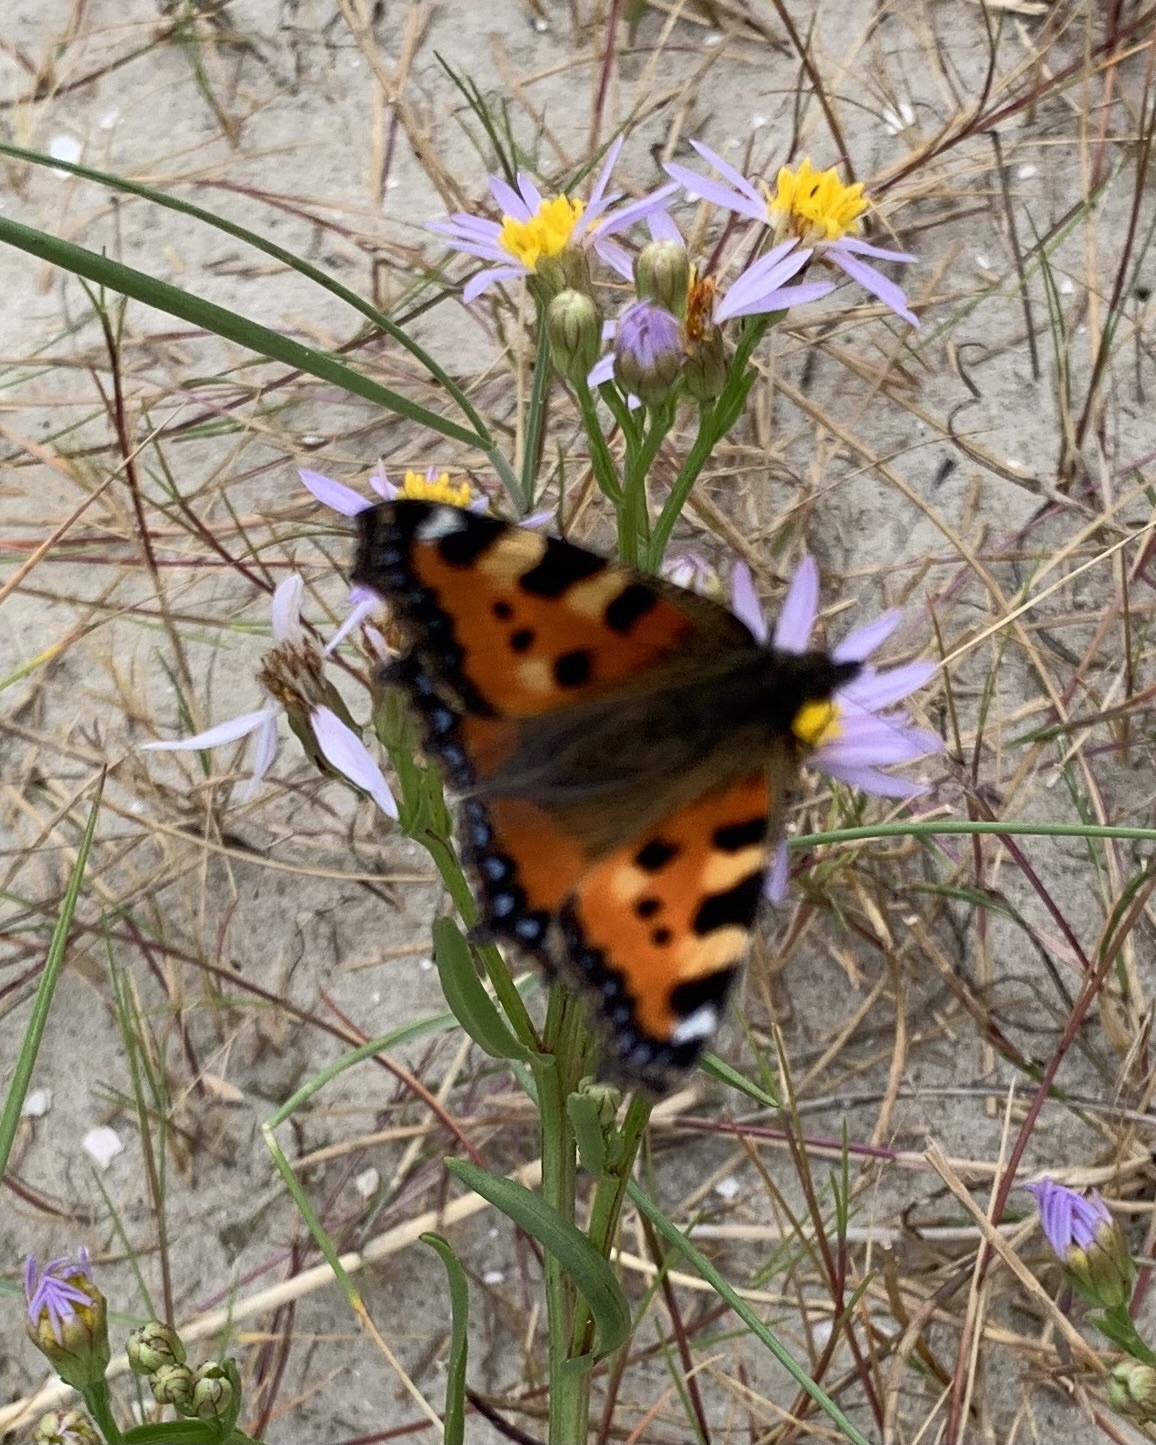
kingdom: Animalia
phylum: Arthropoda
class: Insecta
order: Lepidoptera
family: Nymphalidae
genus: Aglais
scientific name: Aglais urticae
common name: Small tortoiseshell
